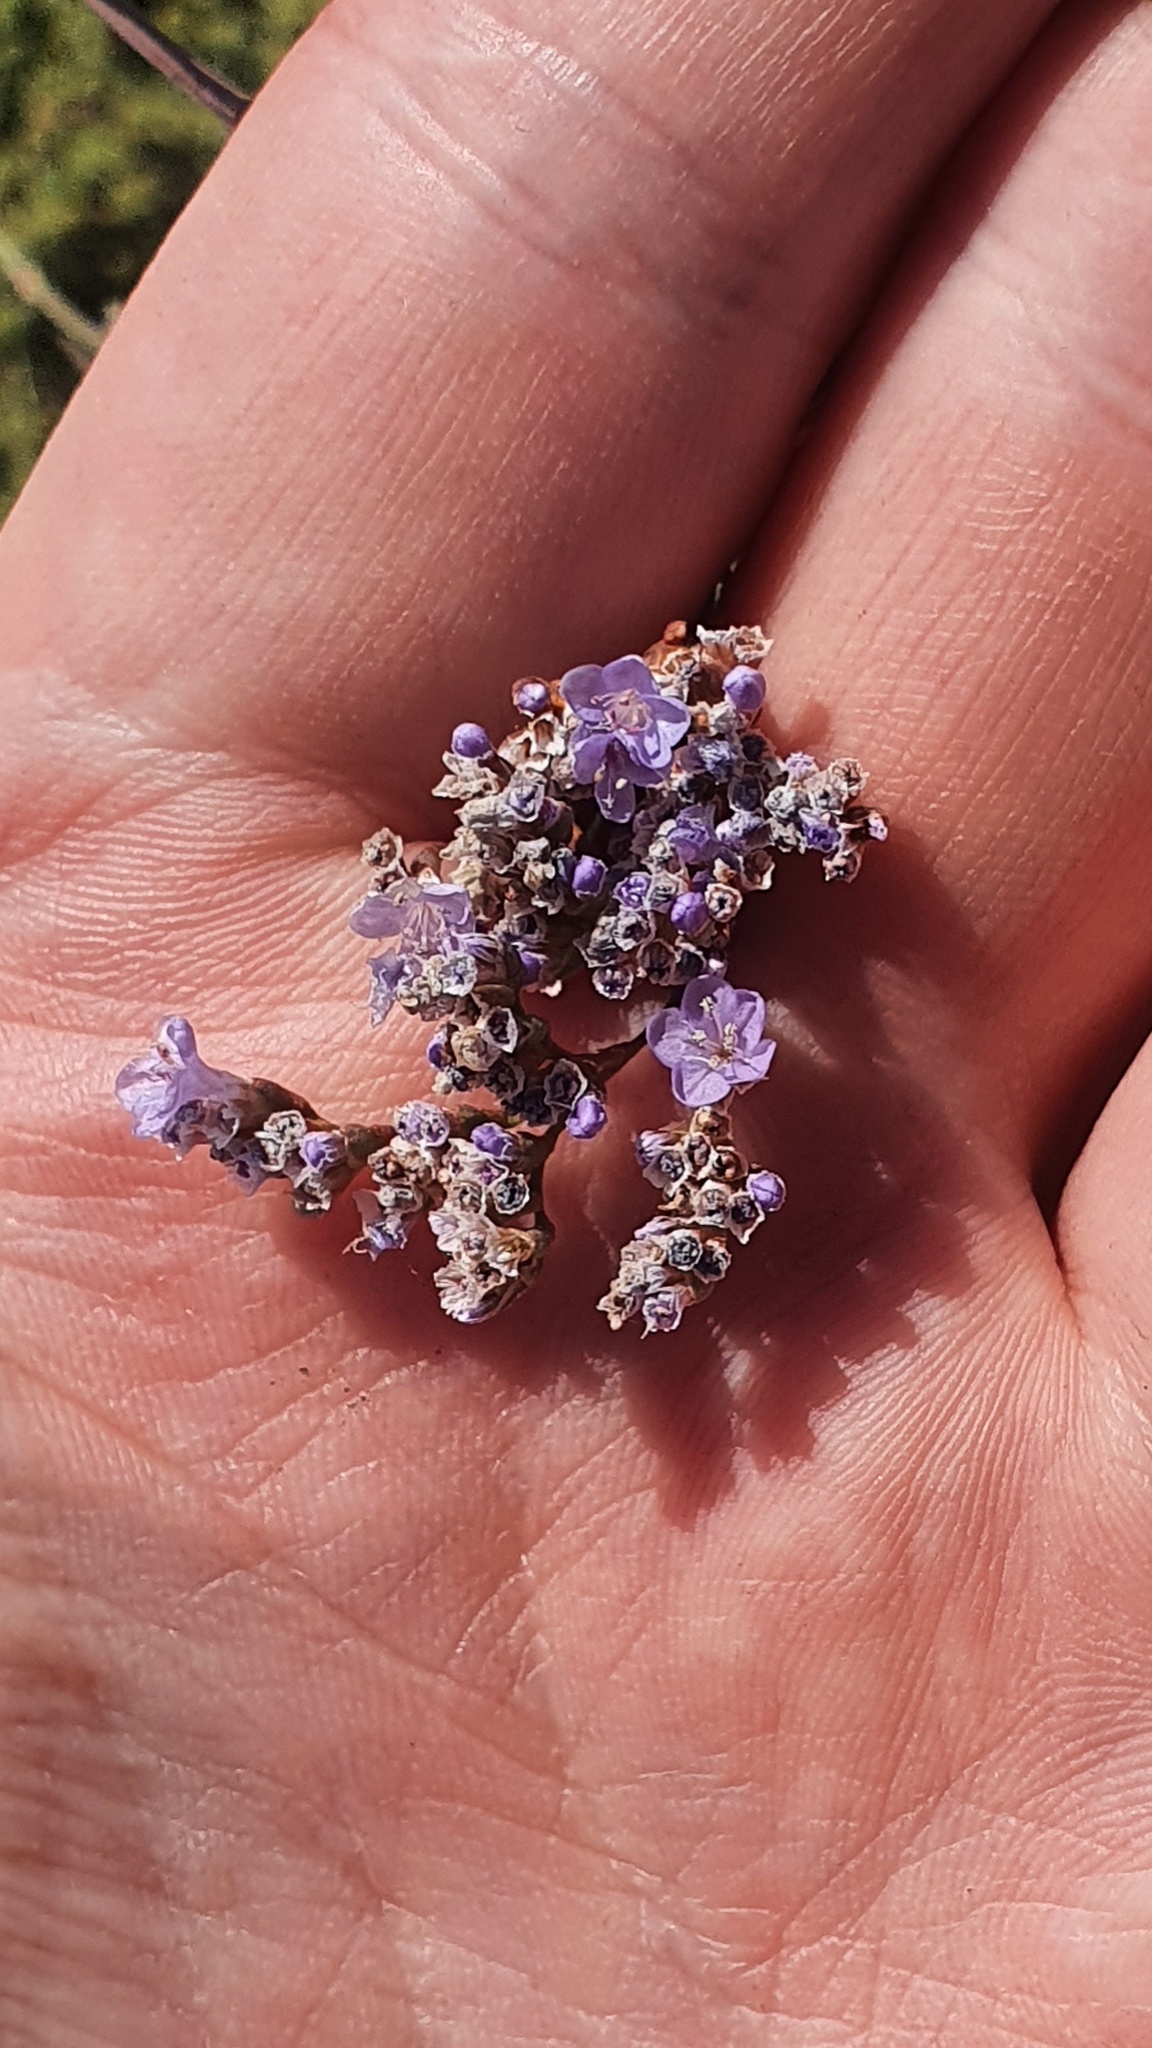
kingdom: Plantae
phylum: Tracheophyta
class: Magnoliopsida
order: Caryophyllales
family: Plumbaginaceae
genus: Limonium
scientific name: Limonium gmelini
